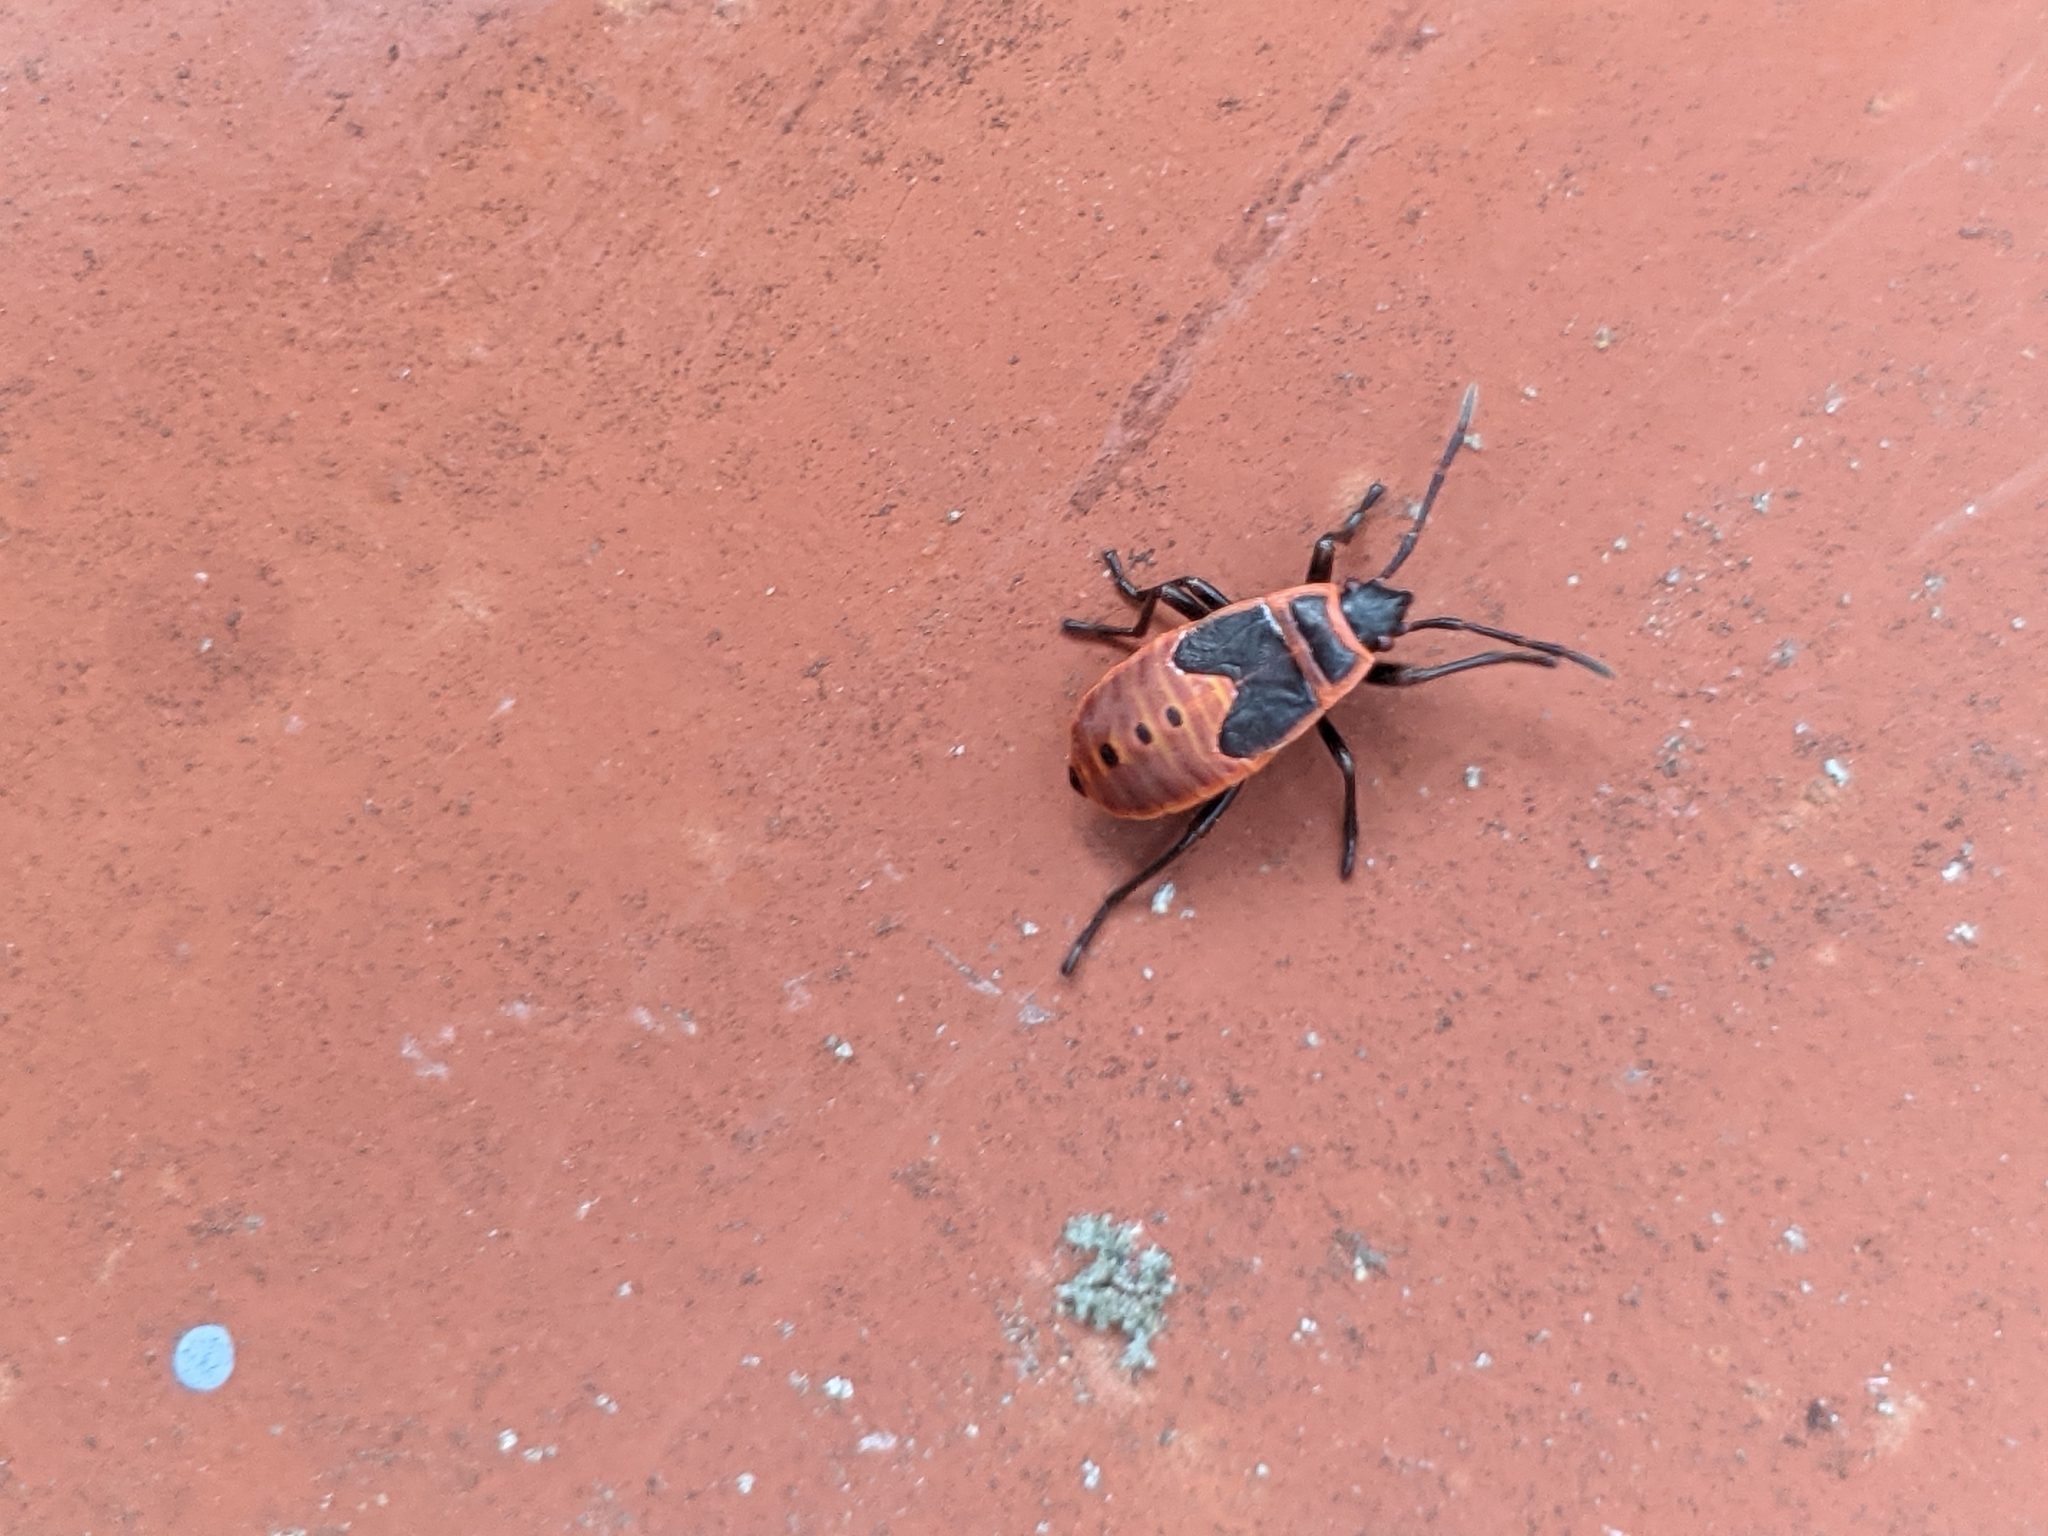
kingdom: Animalia
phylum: Arthropoda
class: Insecta
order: Hemiptera
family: Pyrrhocoridae
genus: Pyrrhocoris
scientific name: Pyrrhocoris apterus
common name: Firebug
